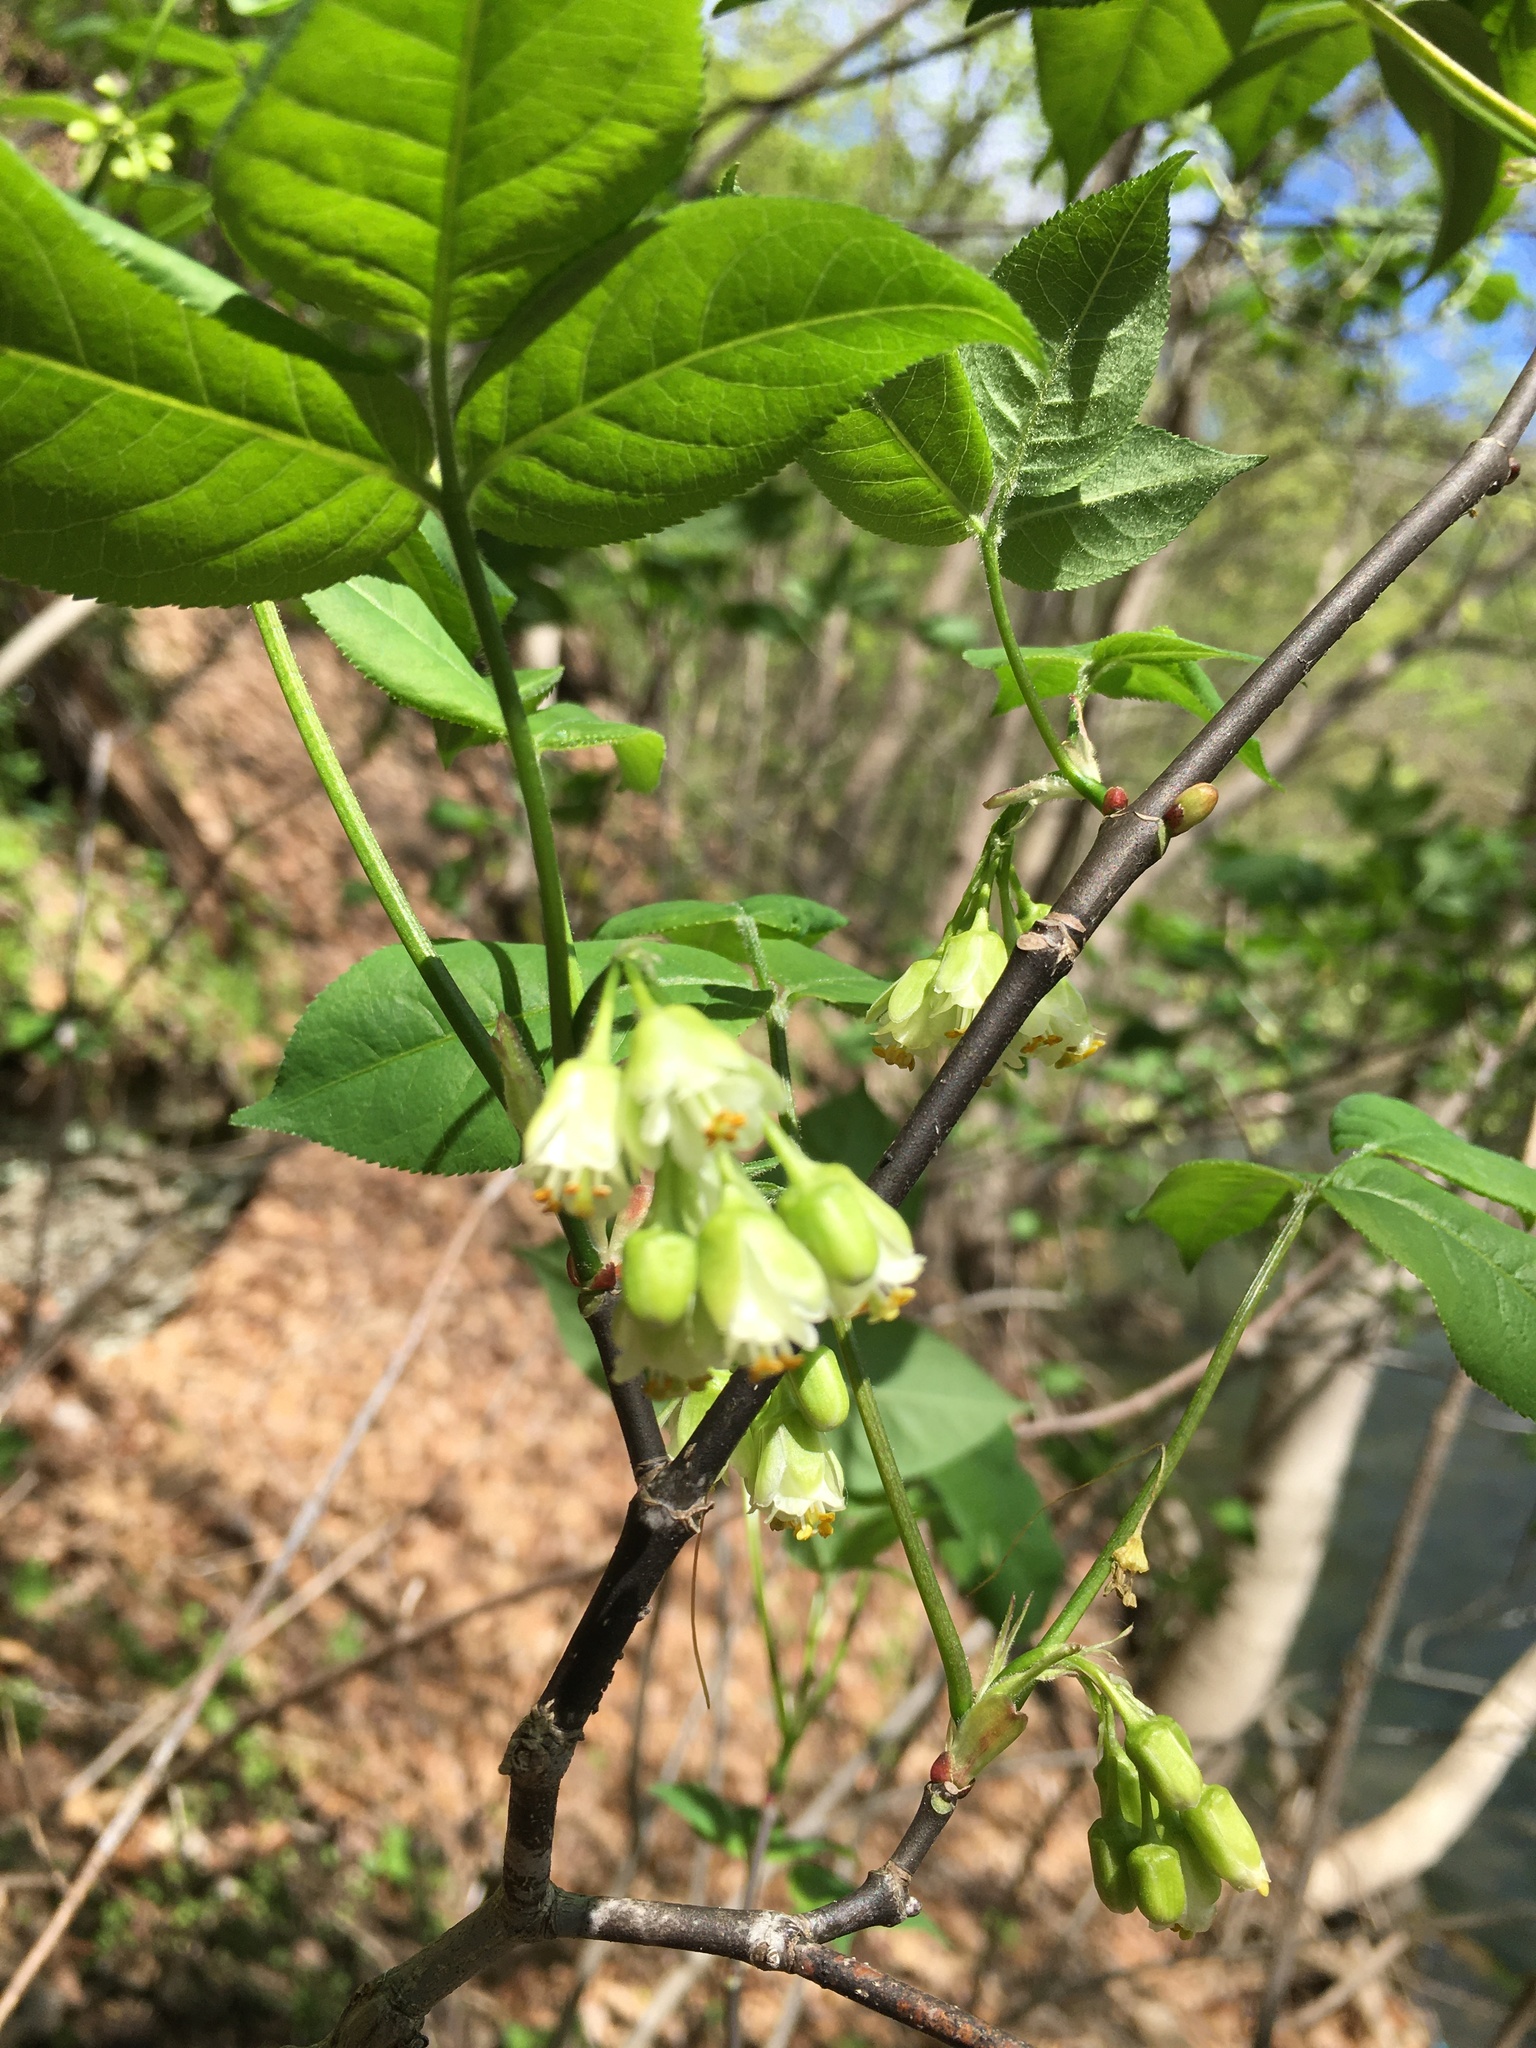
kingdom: Plantae
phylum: Tracheophyta
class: Magnoliopsida
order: Crossosomatales
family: Staphyleaceae
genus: Staphylea
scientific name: Staphylea trifolia
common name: American bladdernut
